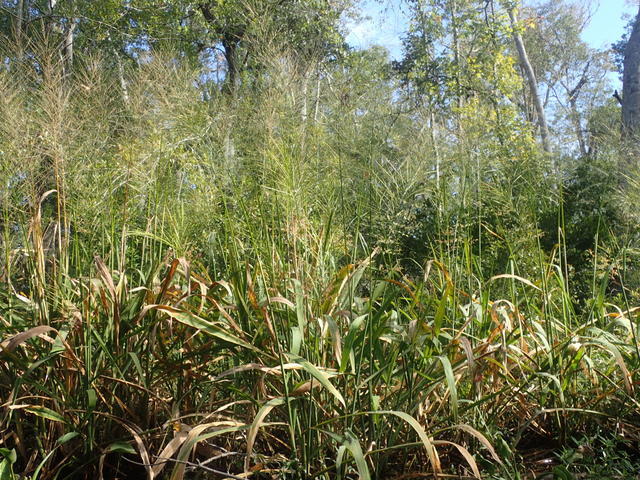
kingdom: Plantae
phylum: Tracheophyta
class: Liliopsida
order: Poales
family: Poaceae
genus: Zizania
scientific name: Zizania aquatica
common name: Annual wildrice
